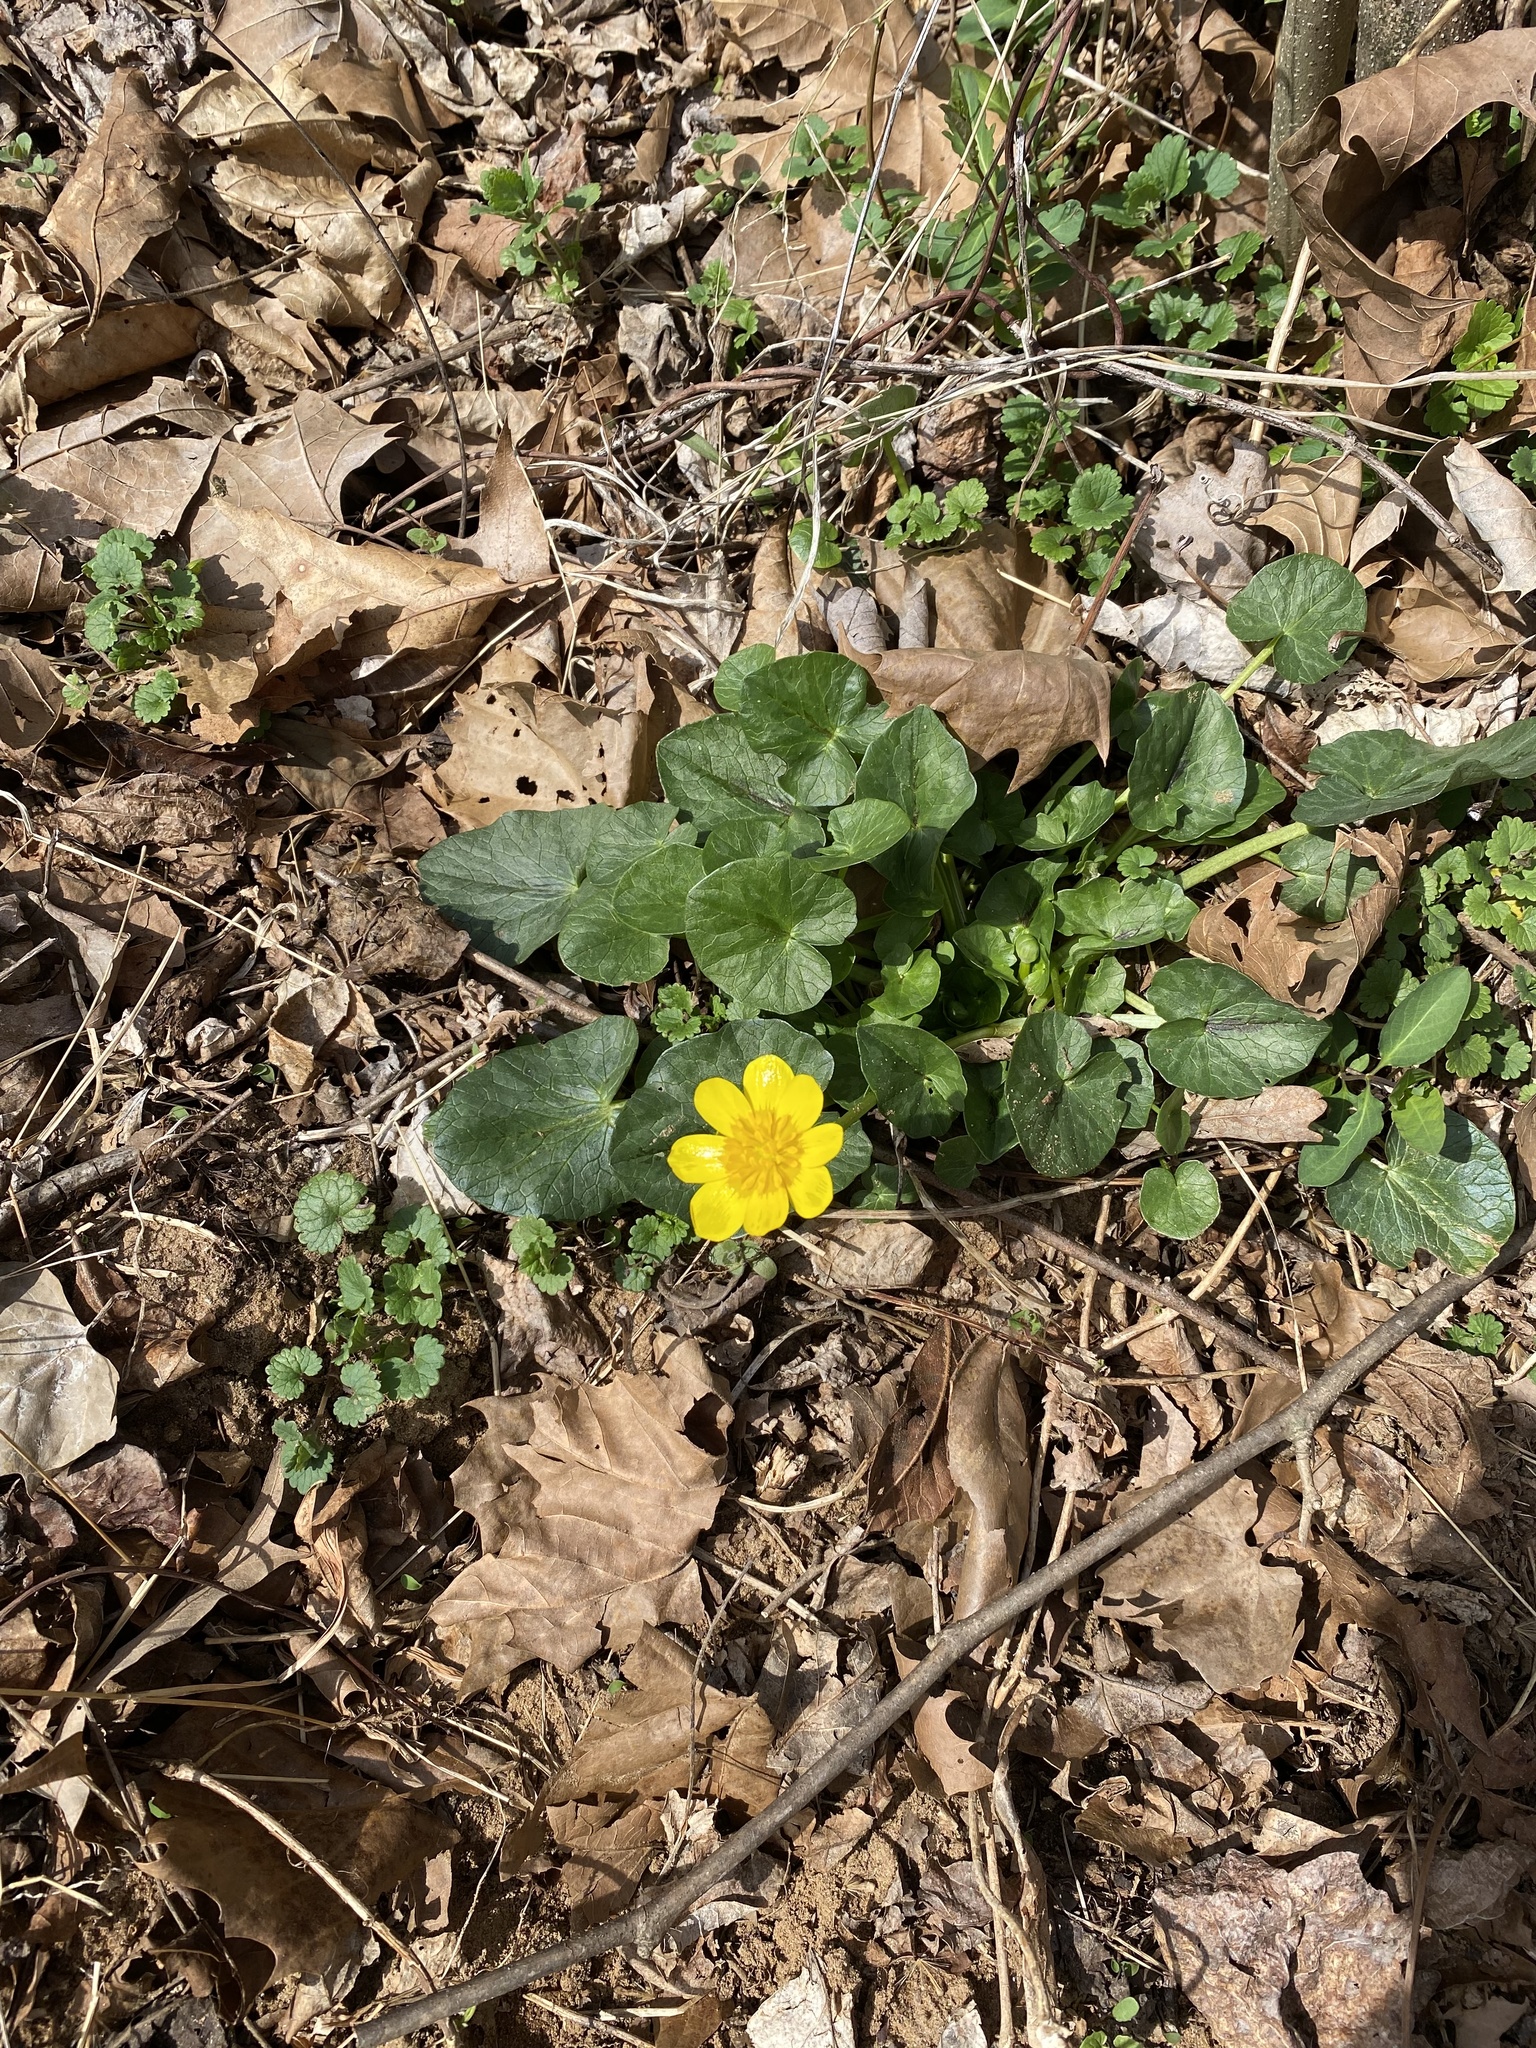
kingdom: Plantae
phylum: Tracheophyta
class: Magnoliopsida
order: Ranunculales
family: Ranunculaceae
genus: Ficaria
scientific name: Ficaria verna
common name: Lesser celandine
